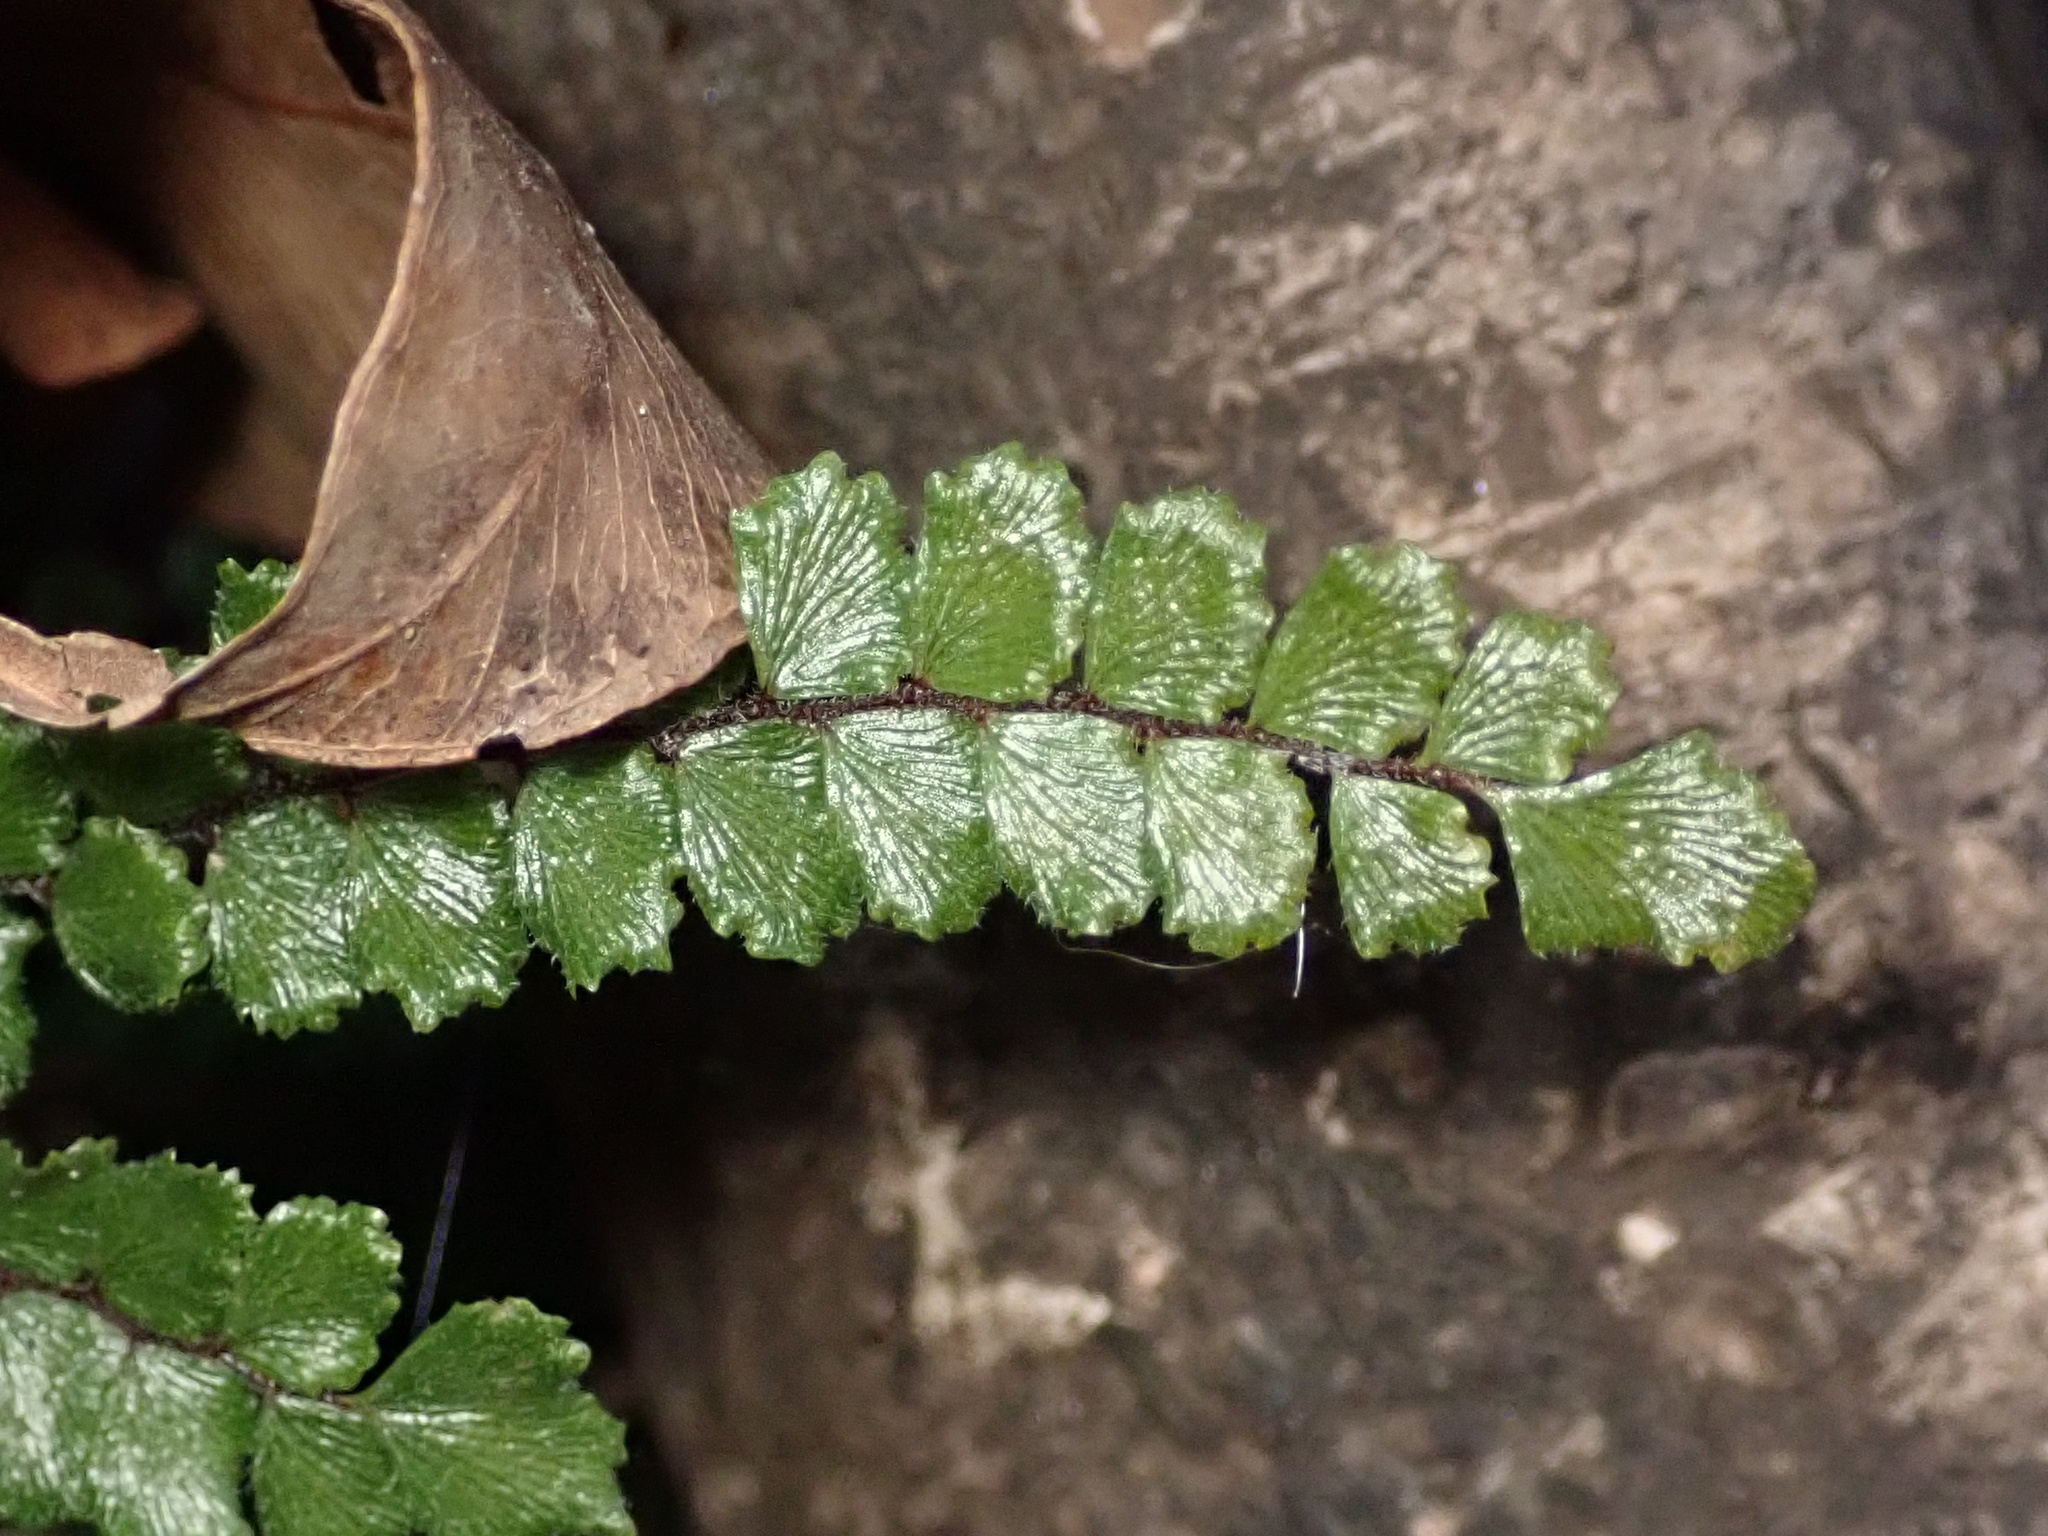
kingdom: Plantae
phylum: Tracheophyta
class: Polypodiopsida
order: Polypodiales
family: Pteridaceae
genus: Adiantum
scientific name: Adiantum hispidulum
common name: Rough maidenhair
